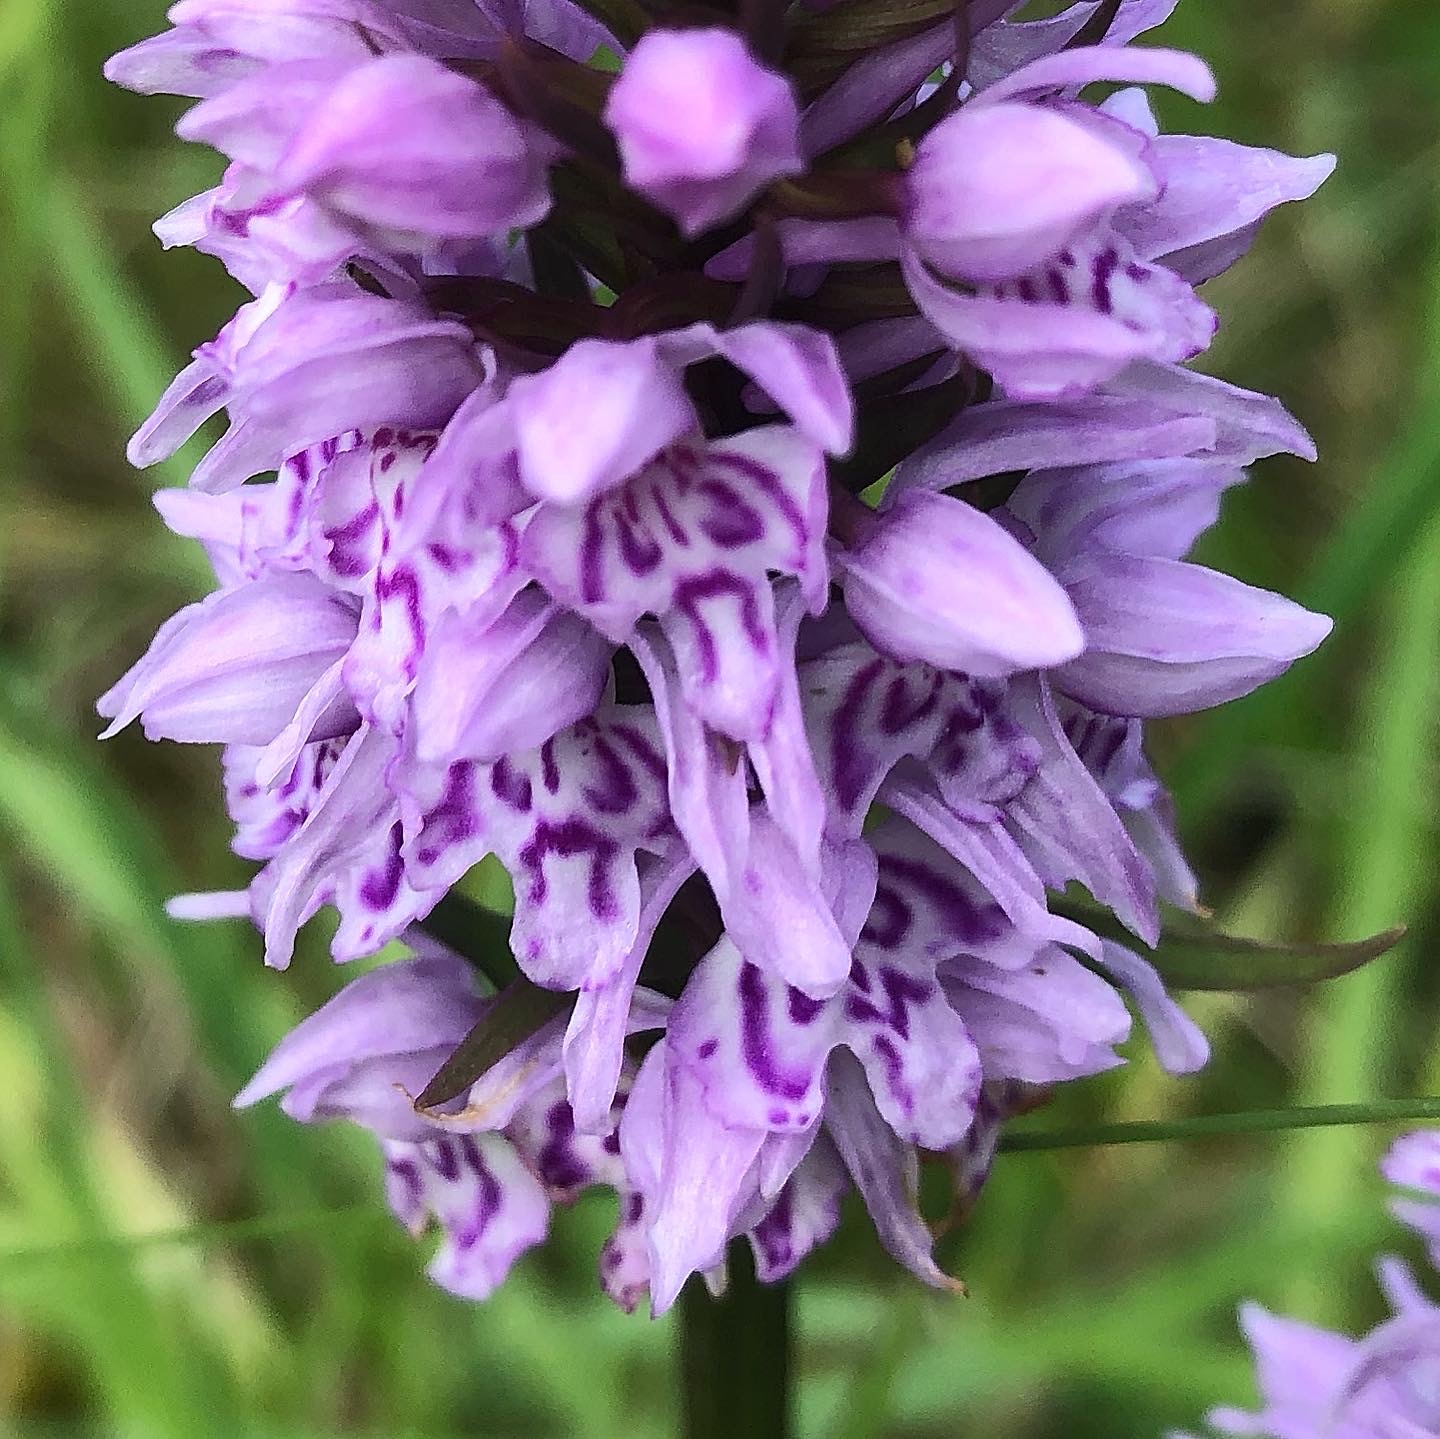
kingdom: Plantae
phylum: Tracheophyta
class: Liliopsida
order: Asparagales
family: Orchidaceae
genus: Dactylorhiza
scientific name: Dactylorhiza maculata
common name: Heath spotted-orchid
